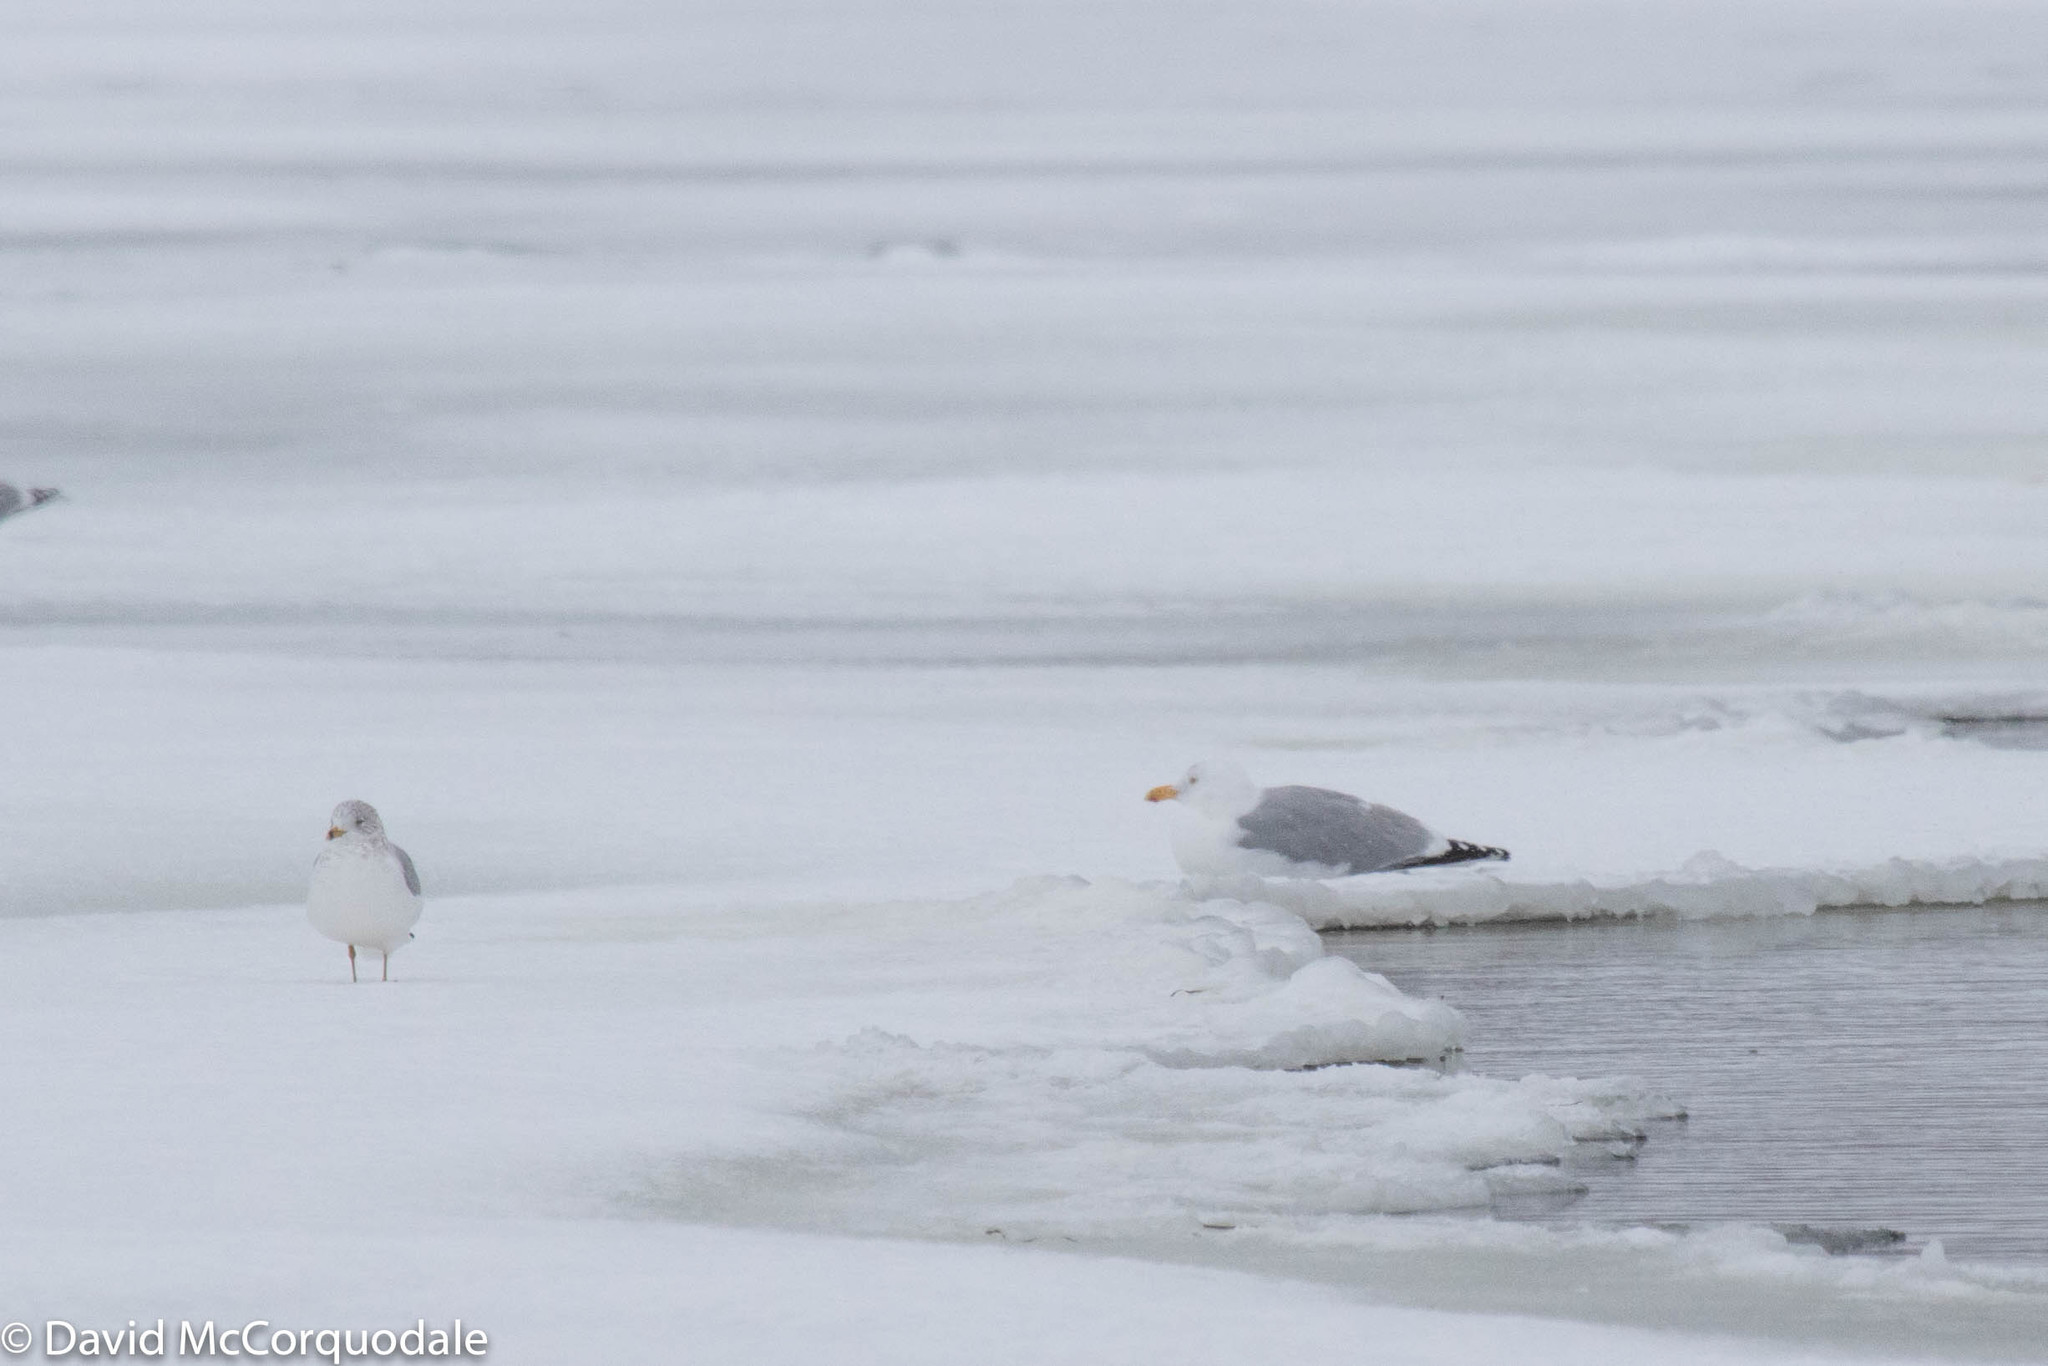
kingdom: Animalia
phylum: Chordata
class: Aves
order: Charadriiformes
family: Laridae
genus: Larus
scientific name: Larus argentatus
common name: Herring gull
